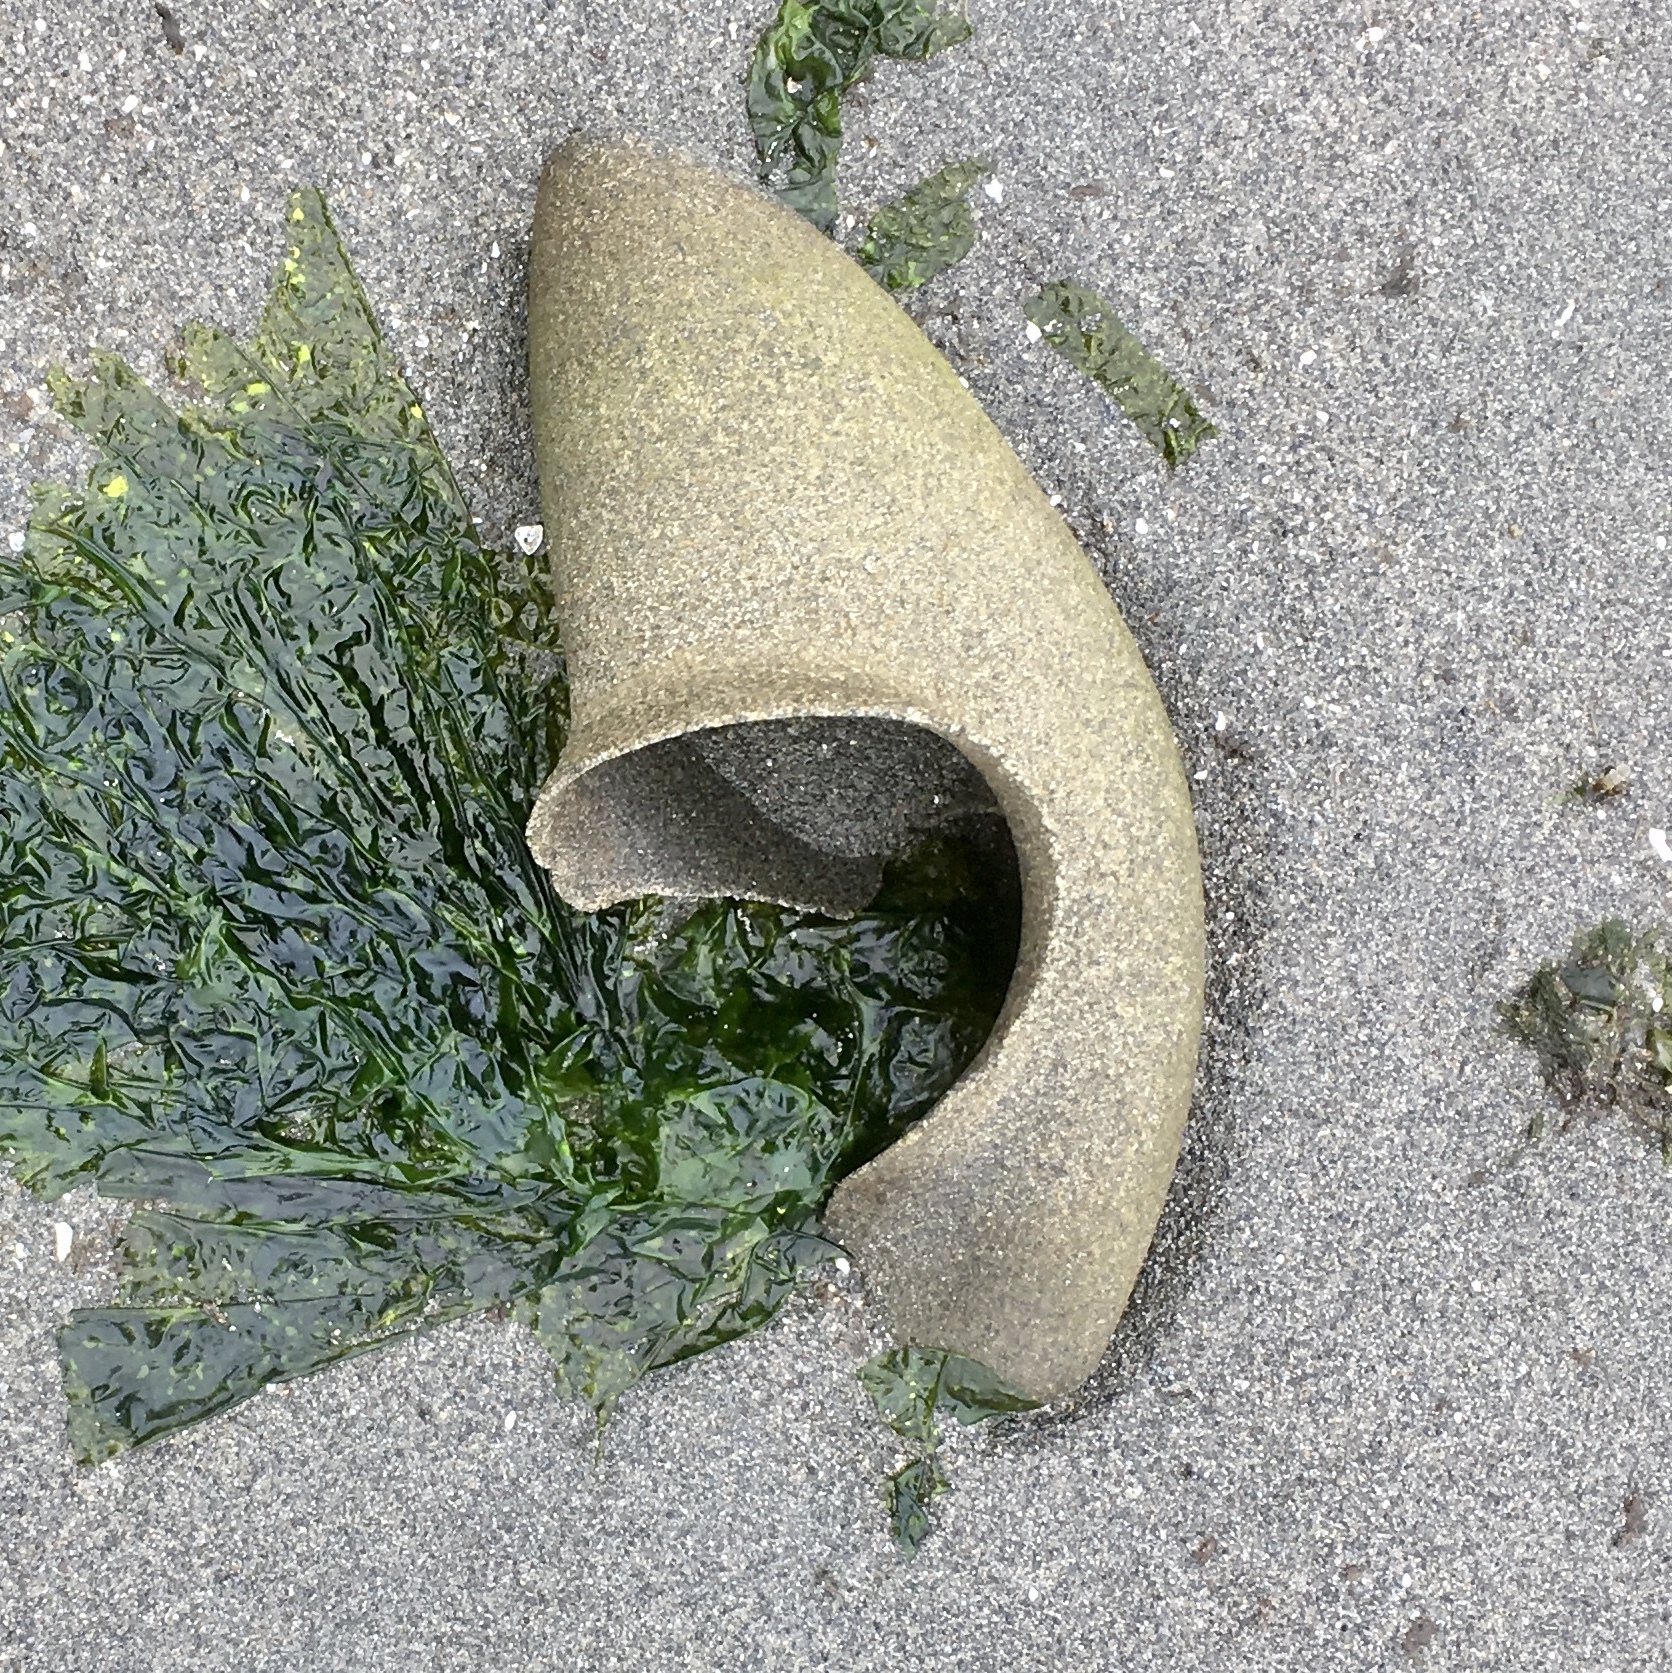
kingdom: Animalia
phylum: Mollusca
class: Gastropoda
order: Littorinimorpha
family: Naticidae
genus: Neverita
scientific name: Neverita lewisii
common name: Lewis' moonsnail
